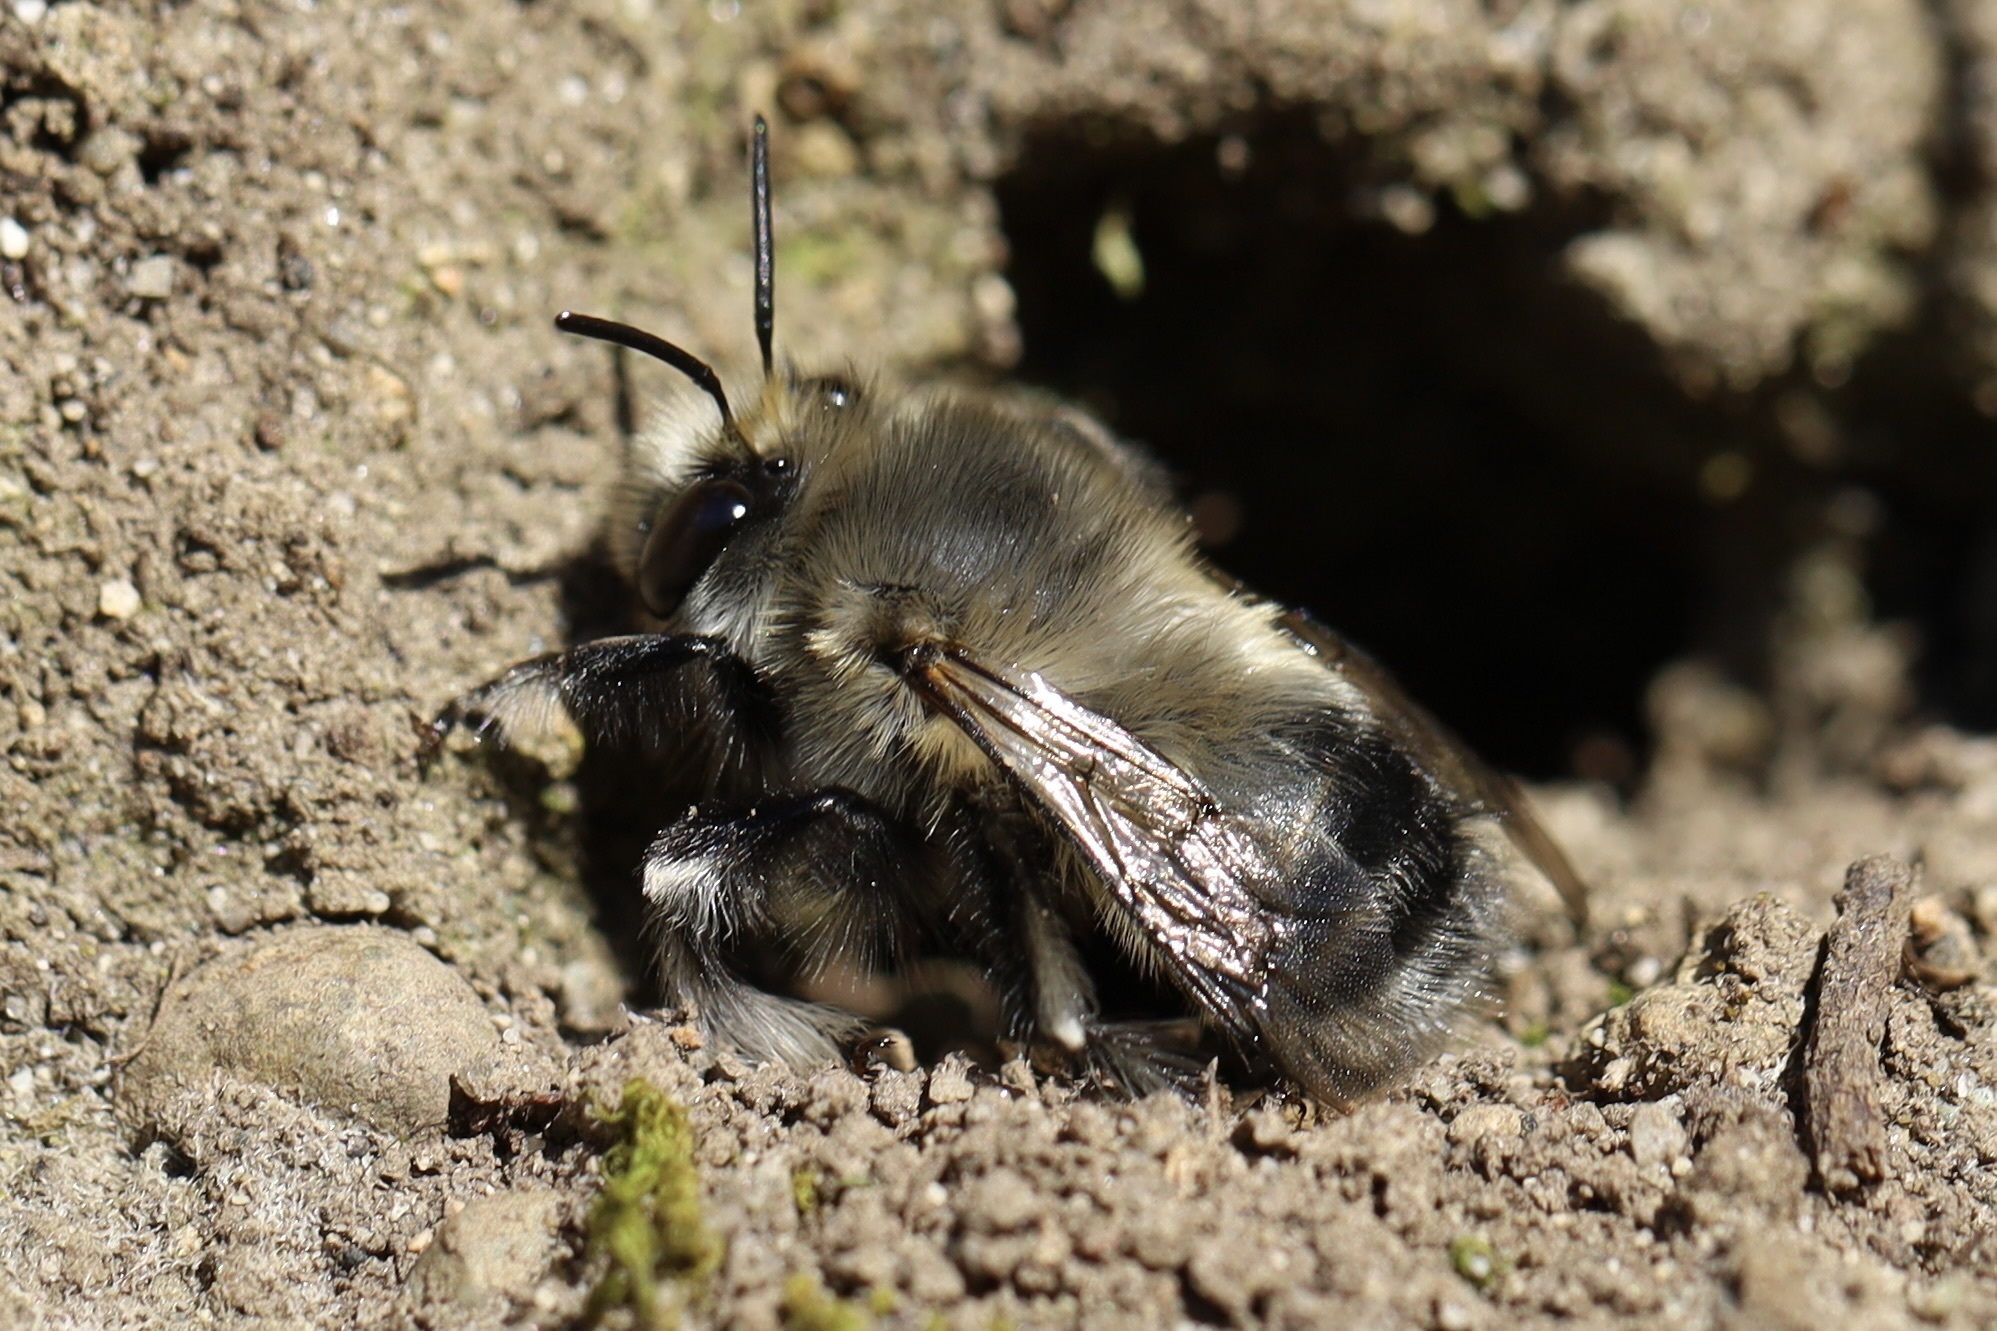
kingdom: Animalia
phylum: Arthropoda
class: Insecta
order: Hymenoptera
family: Apidae
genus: Anthophora
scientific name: Anthophora pacifica
